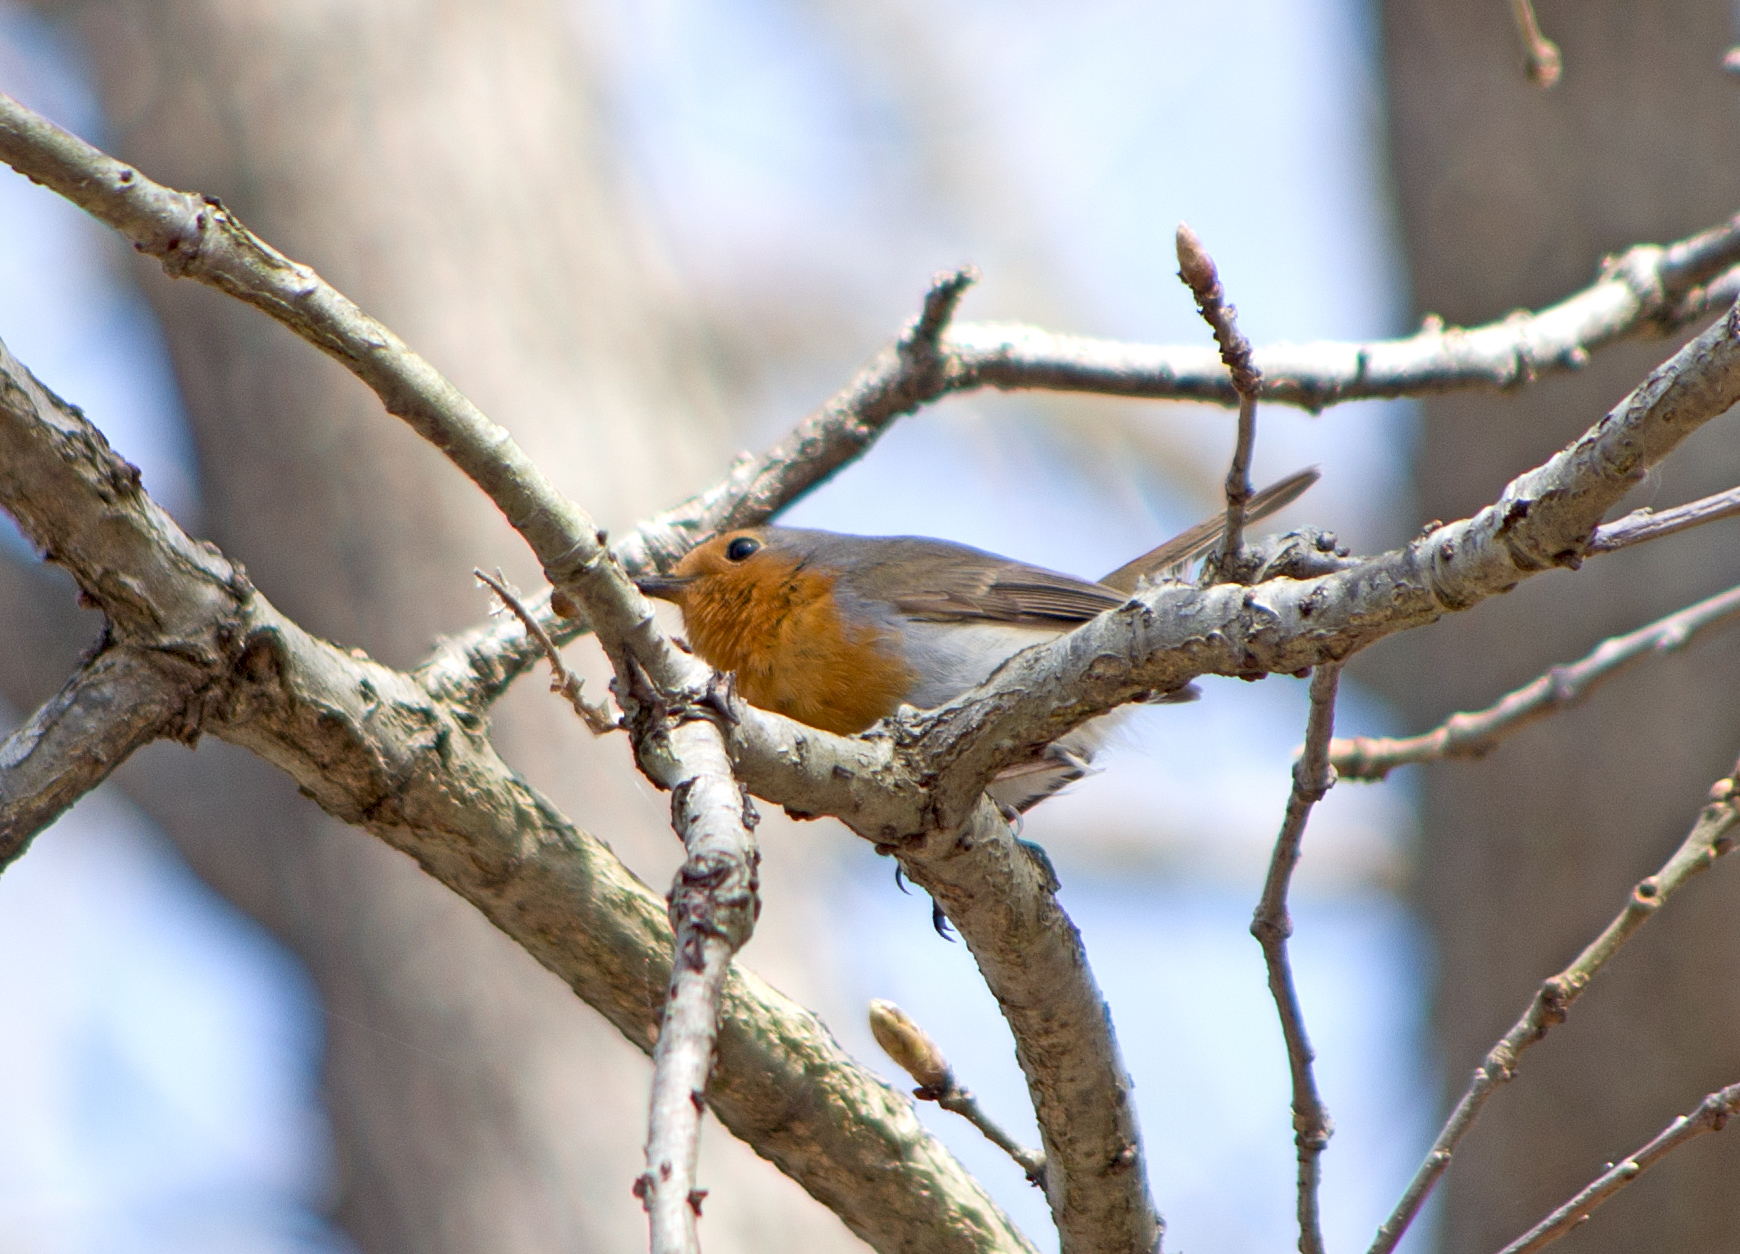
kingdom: Animalia
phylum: Chordata
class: Aves
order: Passeriformes
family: Muscicapidae
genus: Erithacus
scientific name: Erithacus rubecula
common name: European robin
